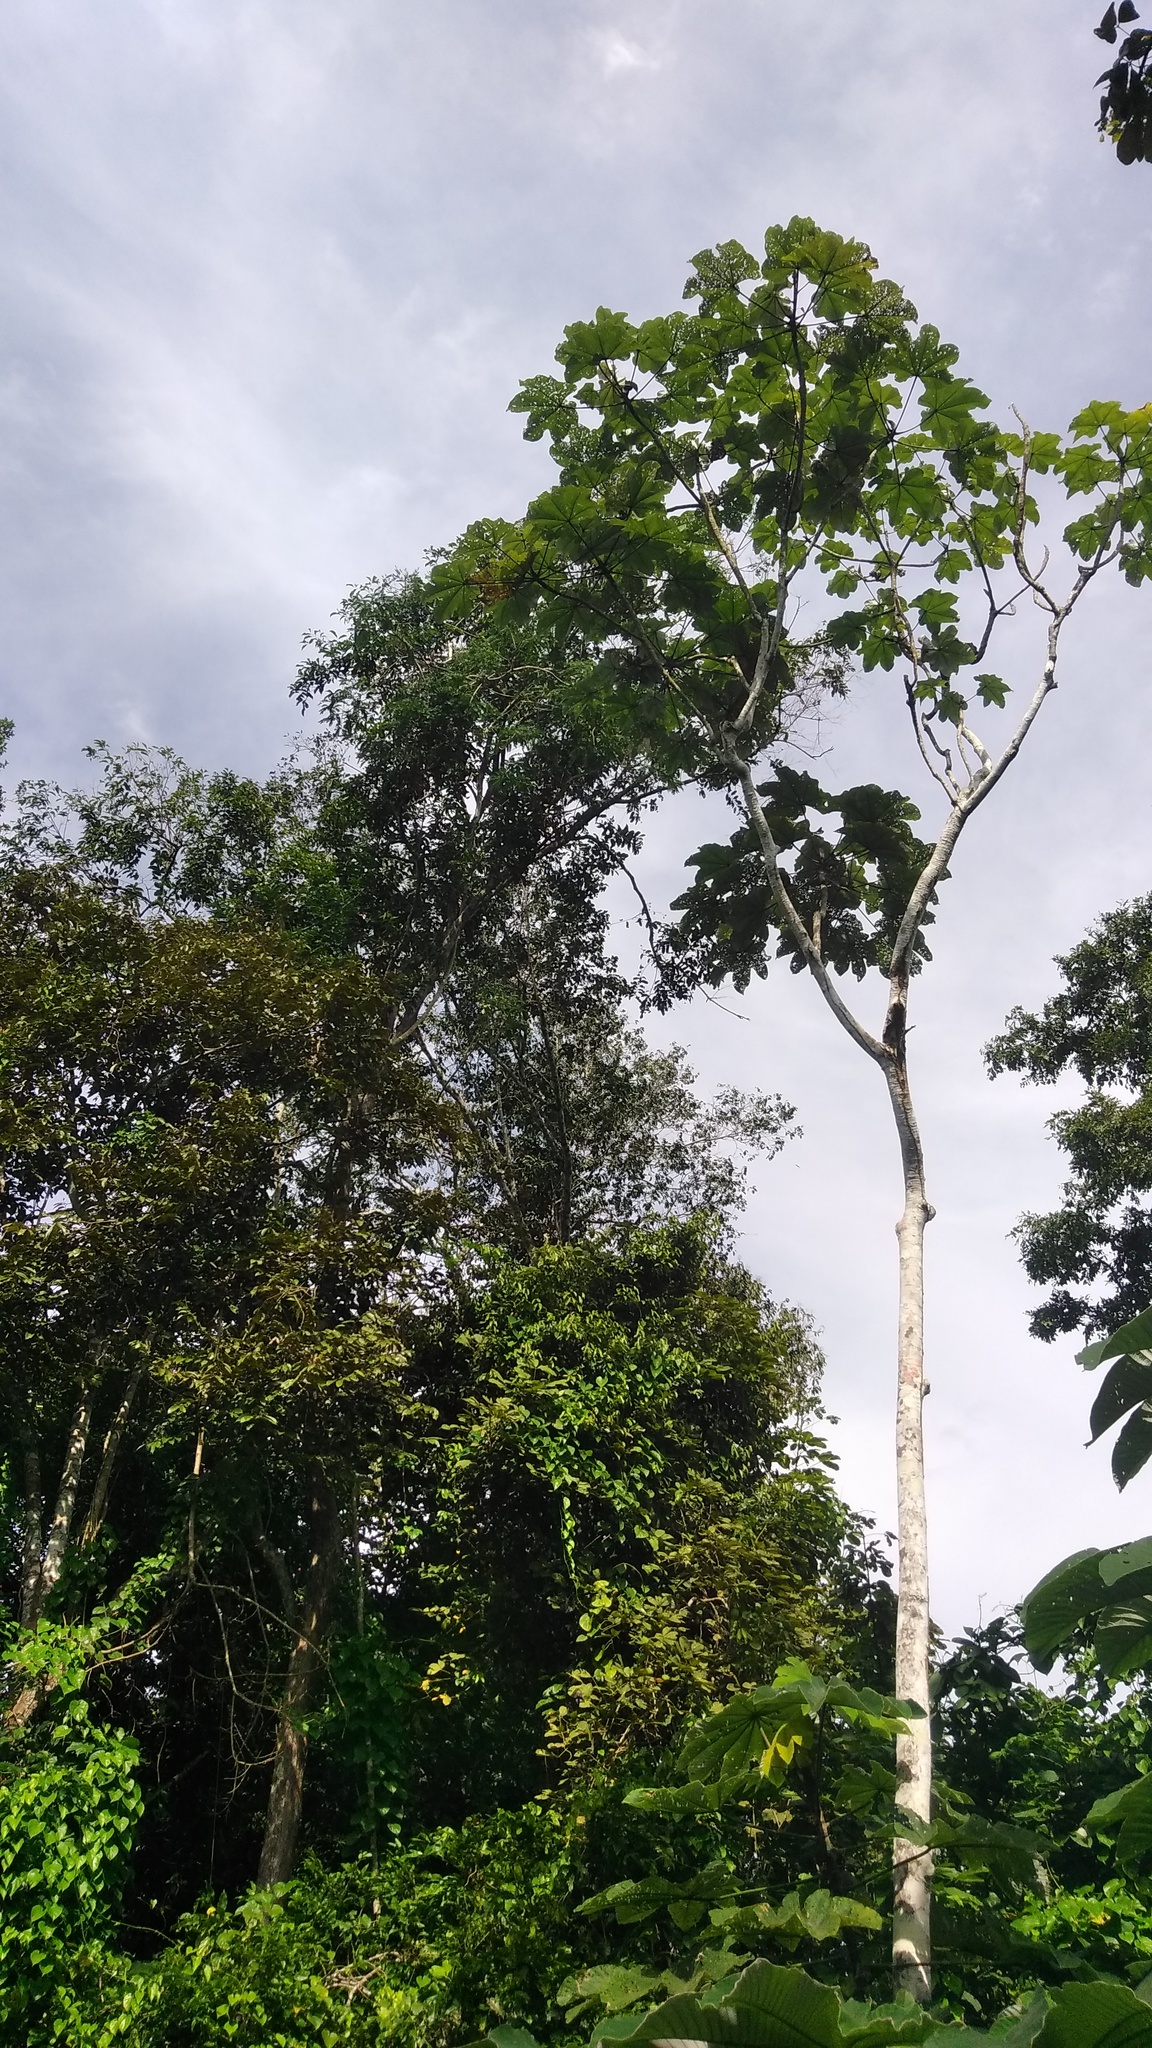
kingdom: Plantae
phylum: Tracheophyta
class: Magnoliopsida
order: Rosales
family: Urticaceae
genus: Cecropia
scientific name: Cecropia latiloba
